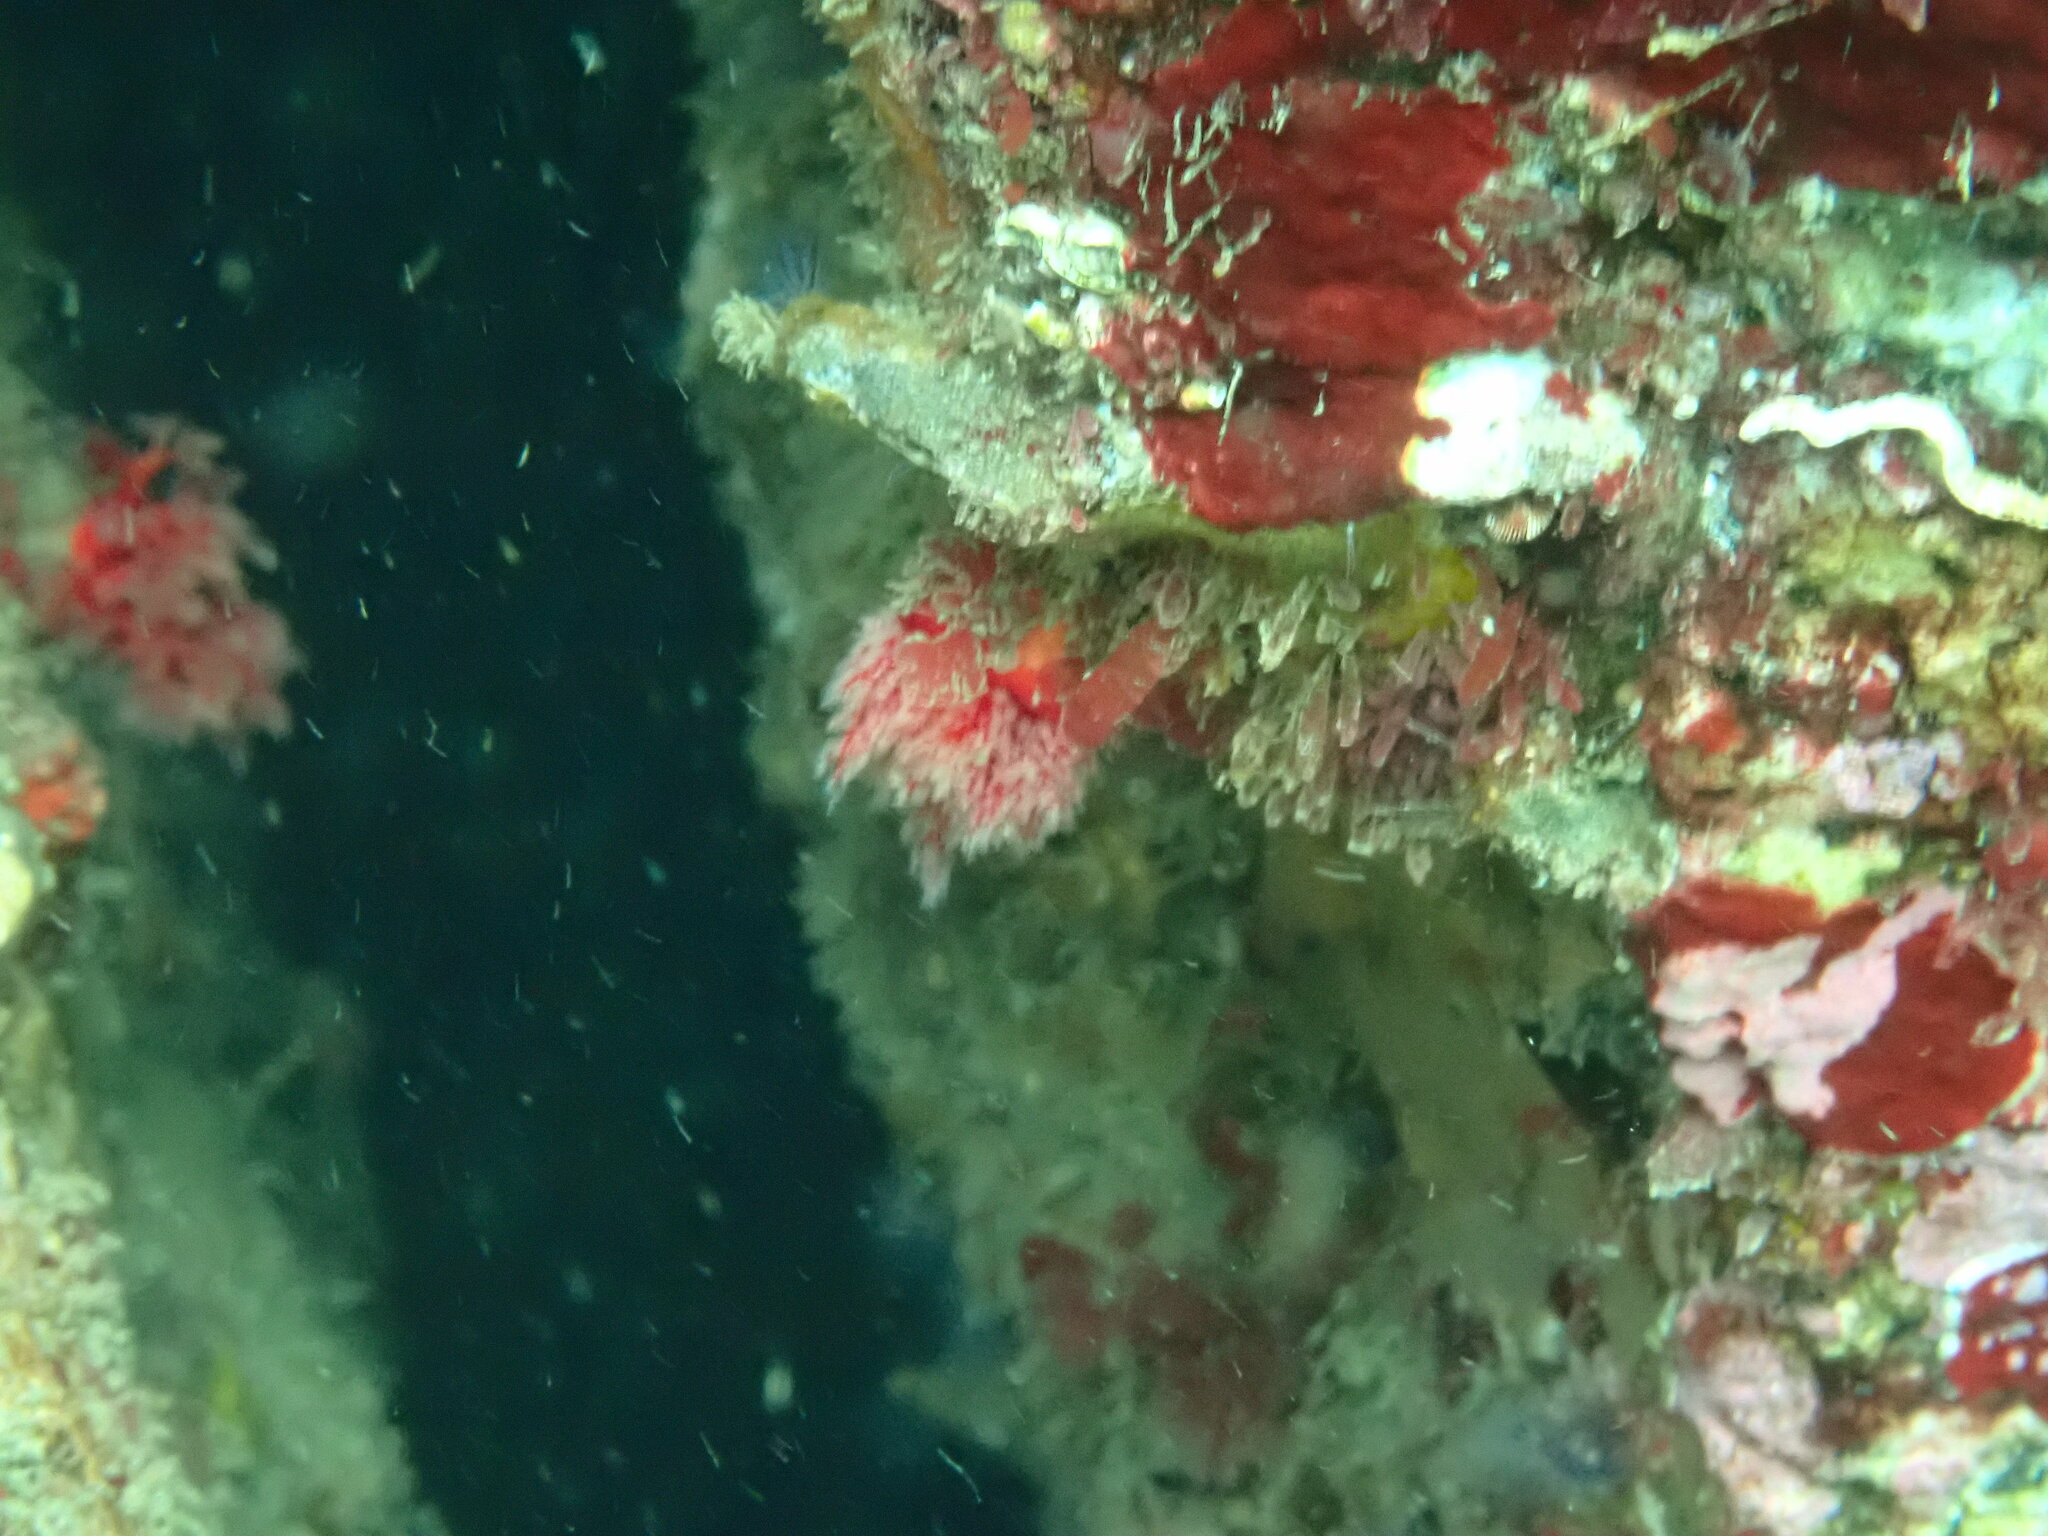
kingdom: Animalia
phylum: Echinodermata
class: Holothuroidea
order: Dendrochirotida
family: Psolidae
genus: Psolus
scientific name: Psolus chitonoides
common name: Creeping pedal sea cucumber
